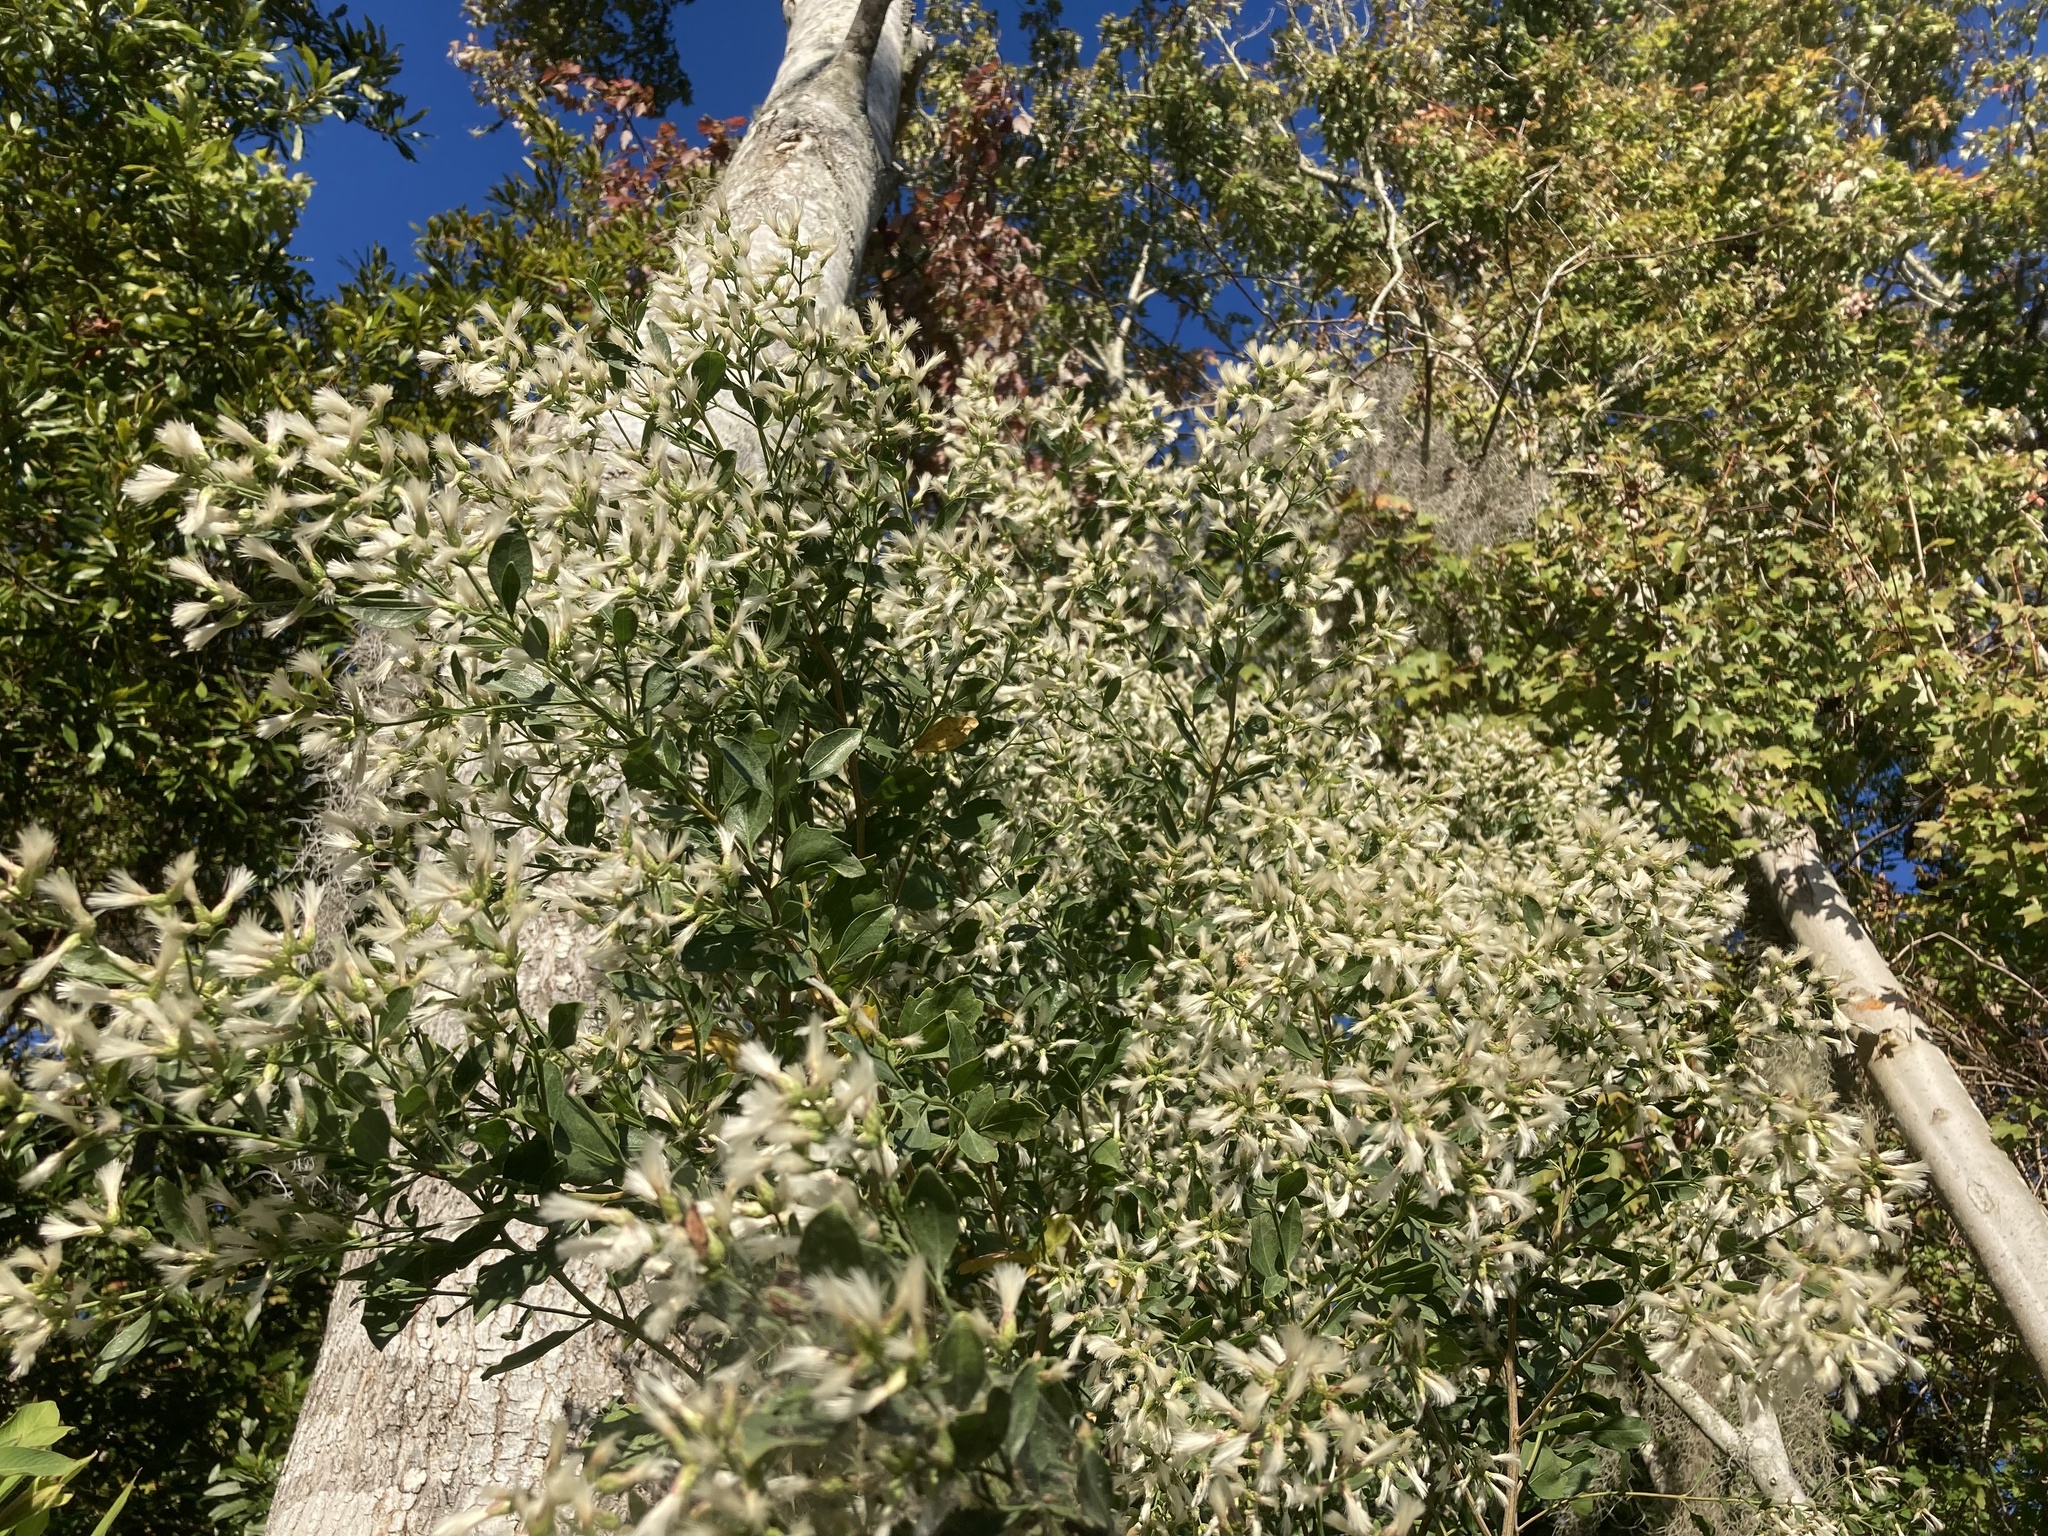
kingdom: Plantae
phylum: Tracheophyta
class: Magnoliopsida
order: Asterales
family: Asteraceae
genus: Baccharis
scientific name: Baccharis halimifolia
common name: Eastern baccharis
